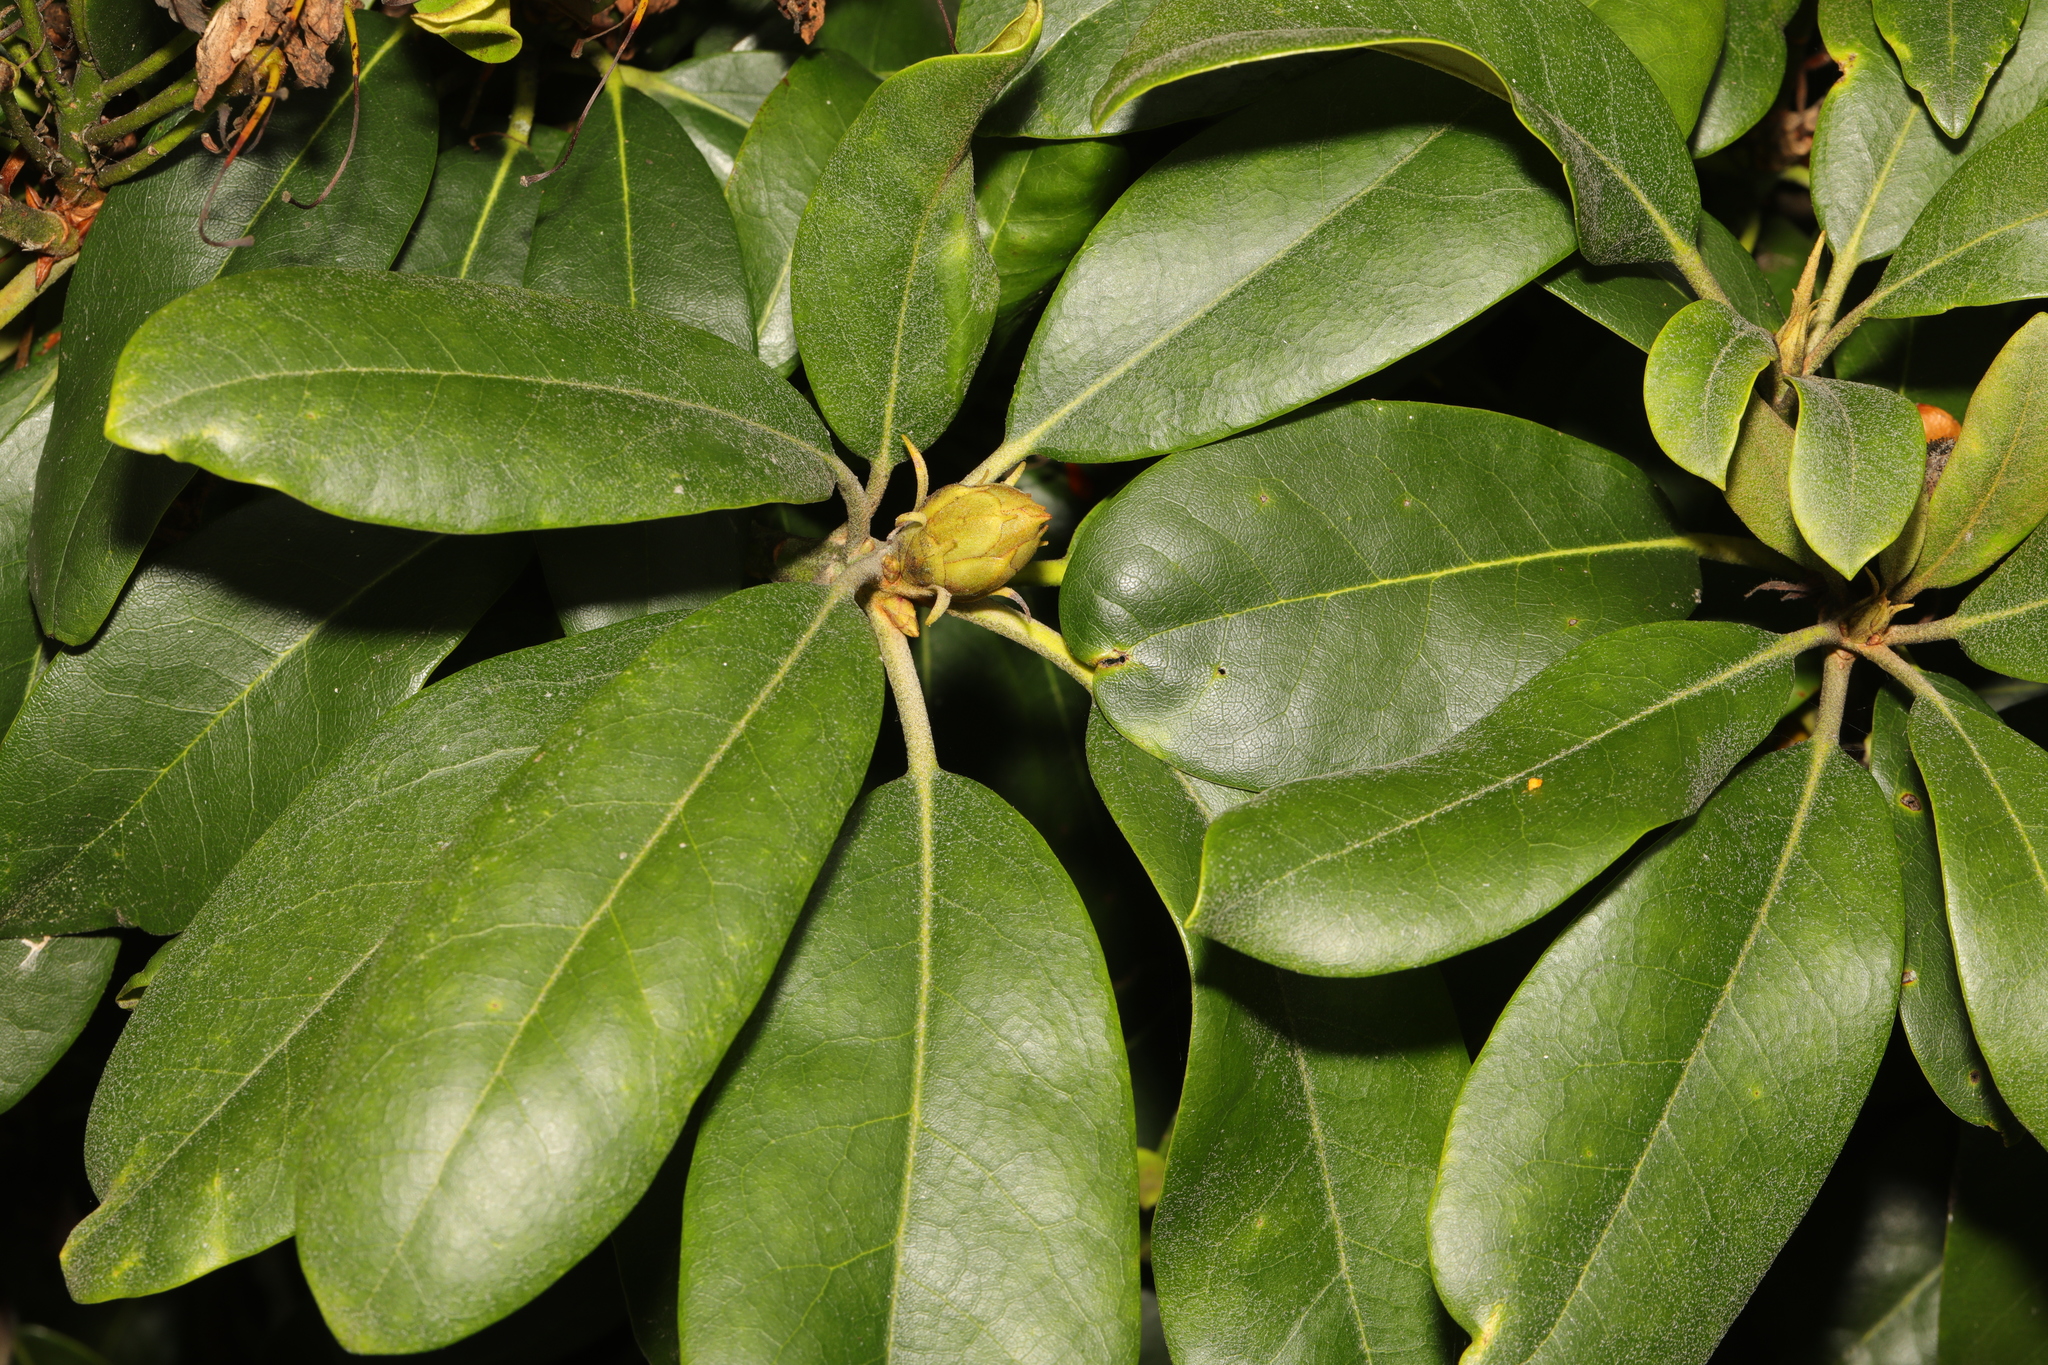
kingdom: Plantae
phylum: Tracheophyta
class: Magnoliopsida
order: Ericales
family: Ericaceae
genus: Rhododendron
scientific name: Rhododendron
